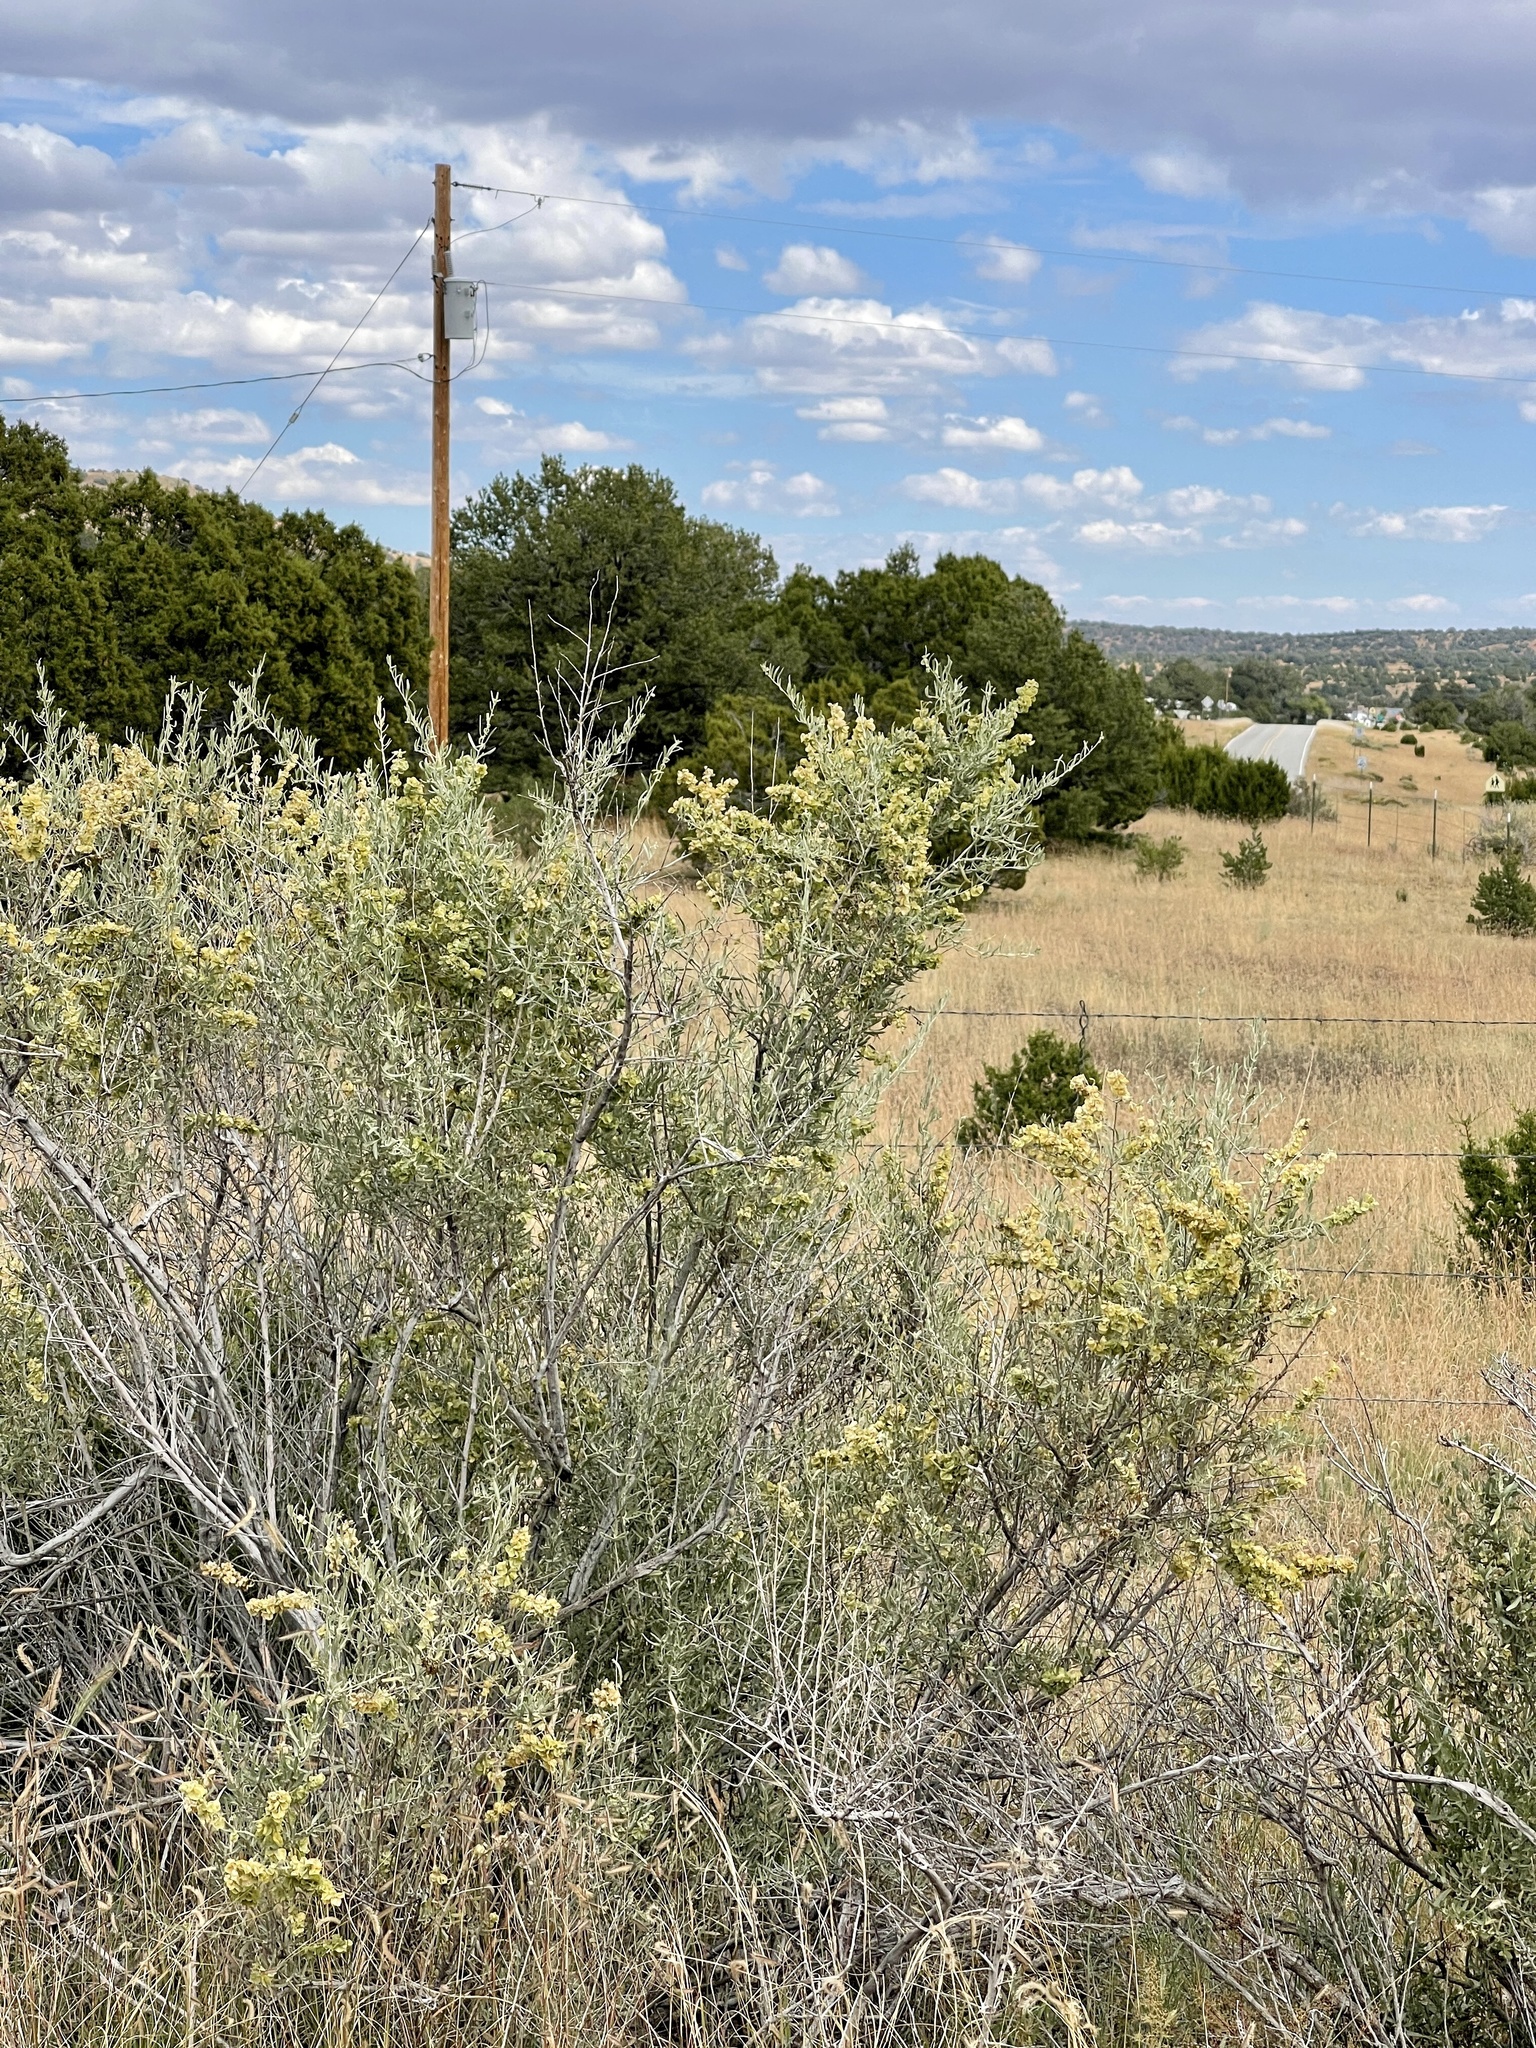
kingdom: Plantae
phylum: Tracheophyta
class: Magnoliopsida
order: Caryophyllales
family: Amaranthaceae
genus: Atriplex
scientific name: Atriplex canescens
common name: Four-wing saltbush
